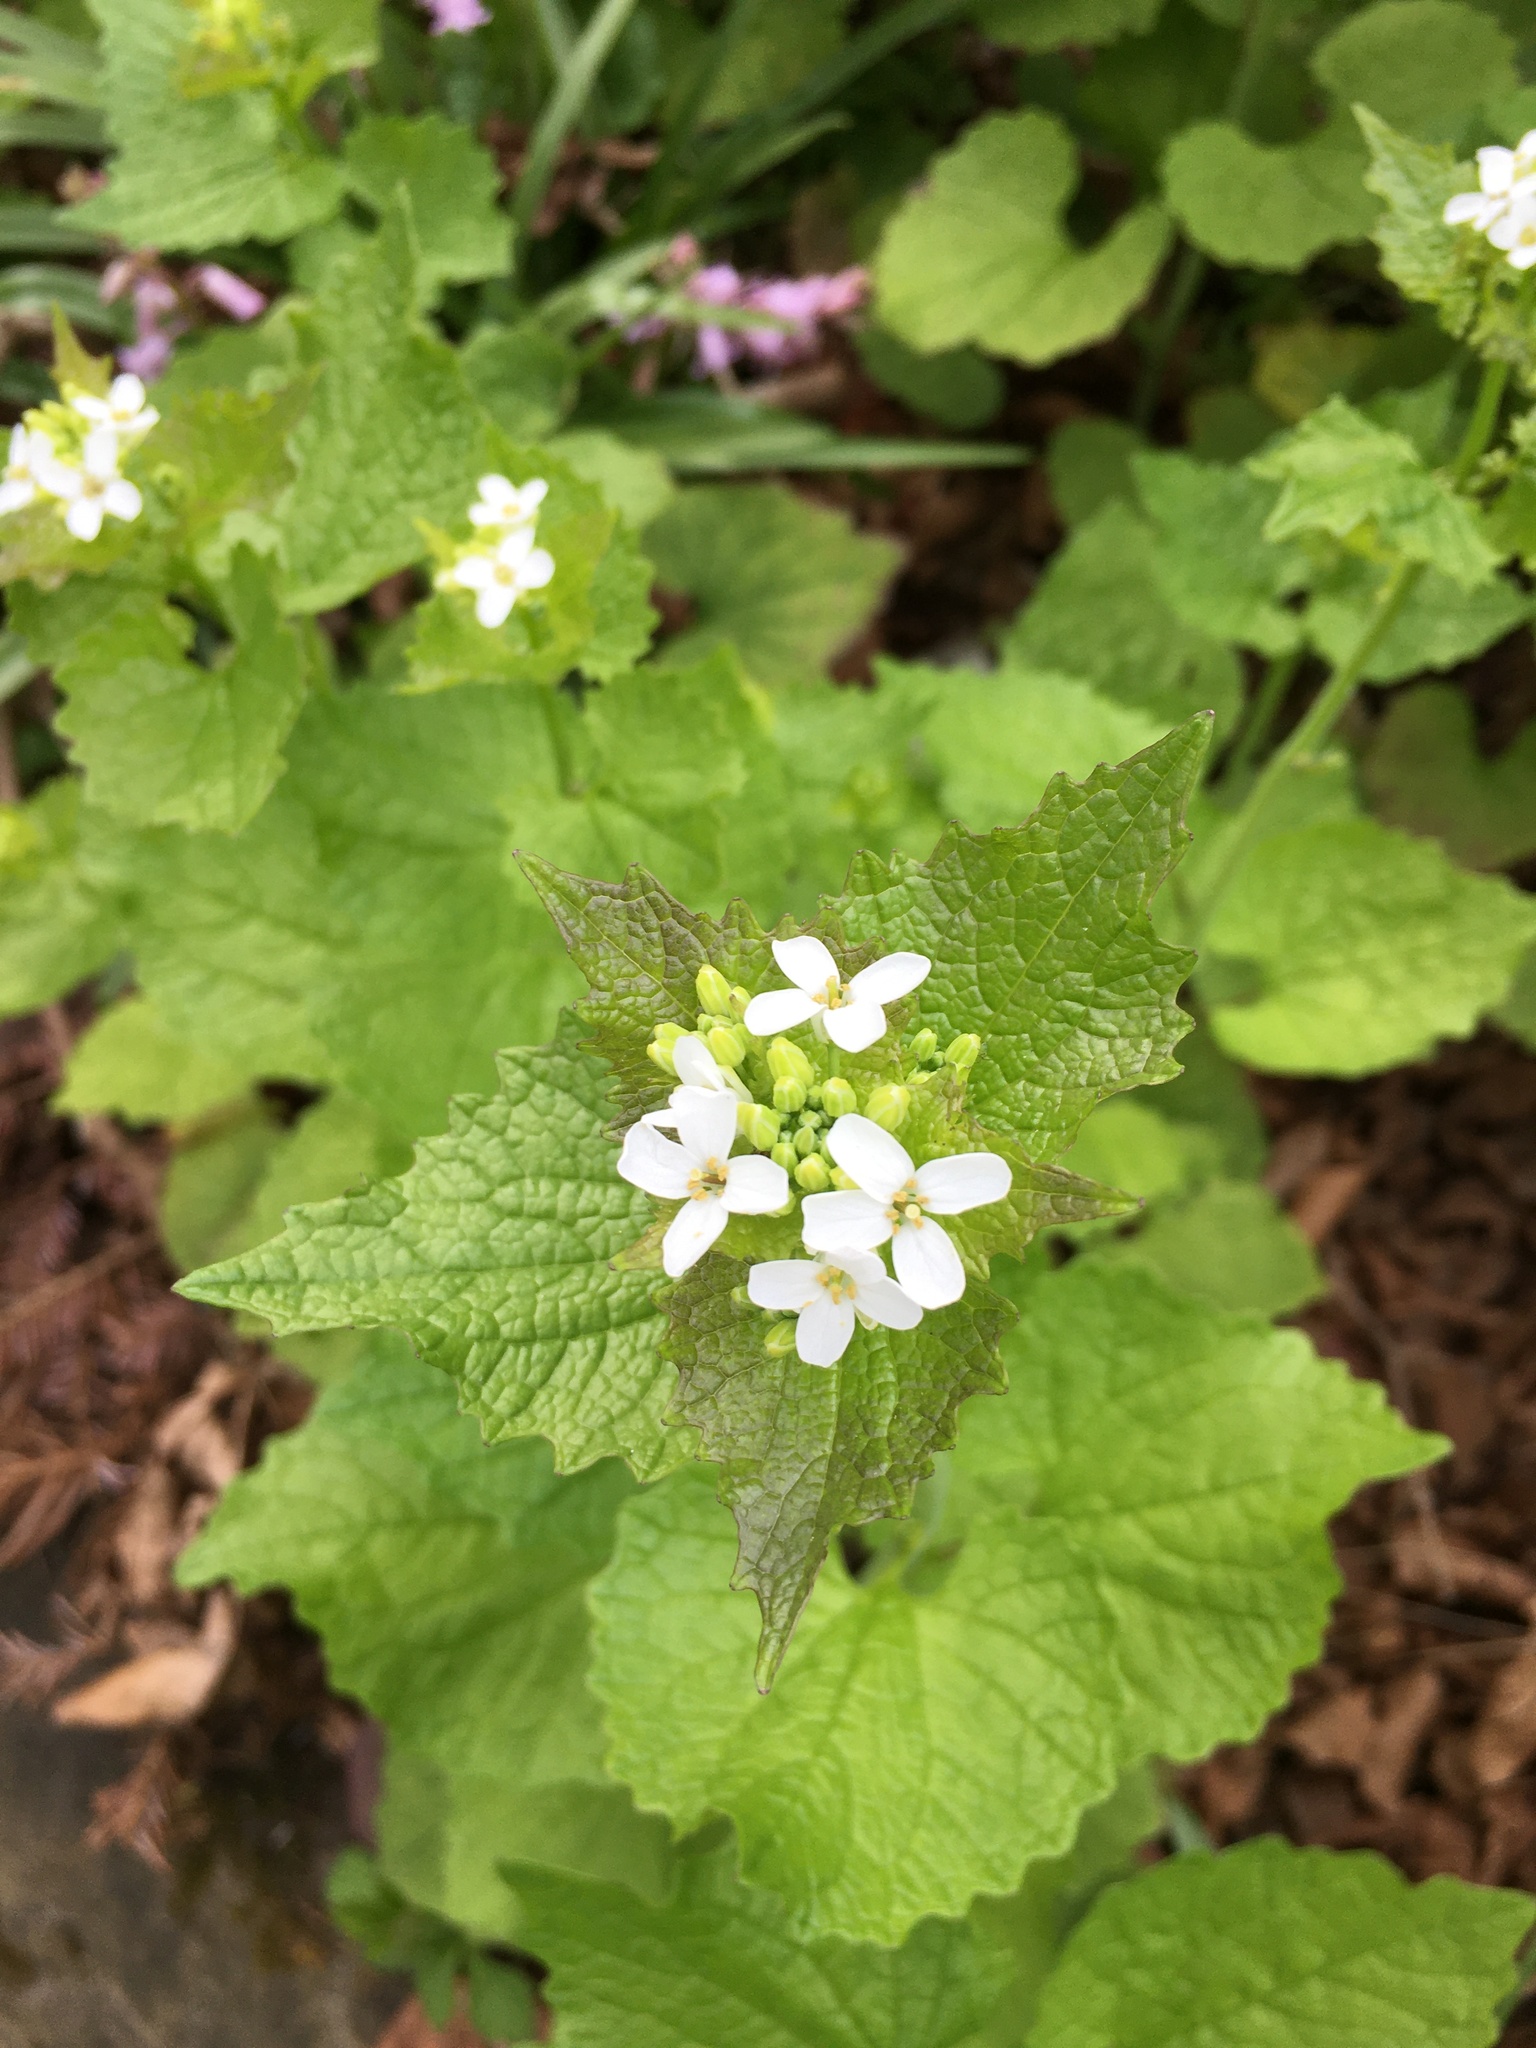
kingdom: Plantae
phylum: Tracheophyta
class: Magnoliopsida
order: Brassicales
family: Brassicaceae
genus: Alliaria
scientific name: Alliaria petiolata
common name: Garlic mustard
